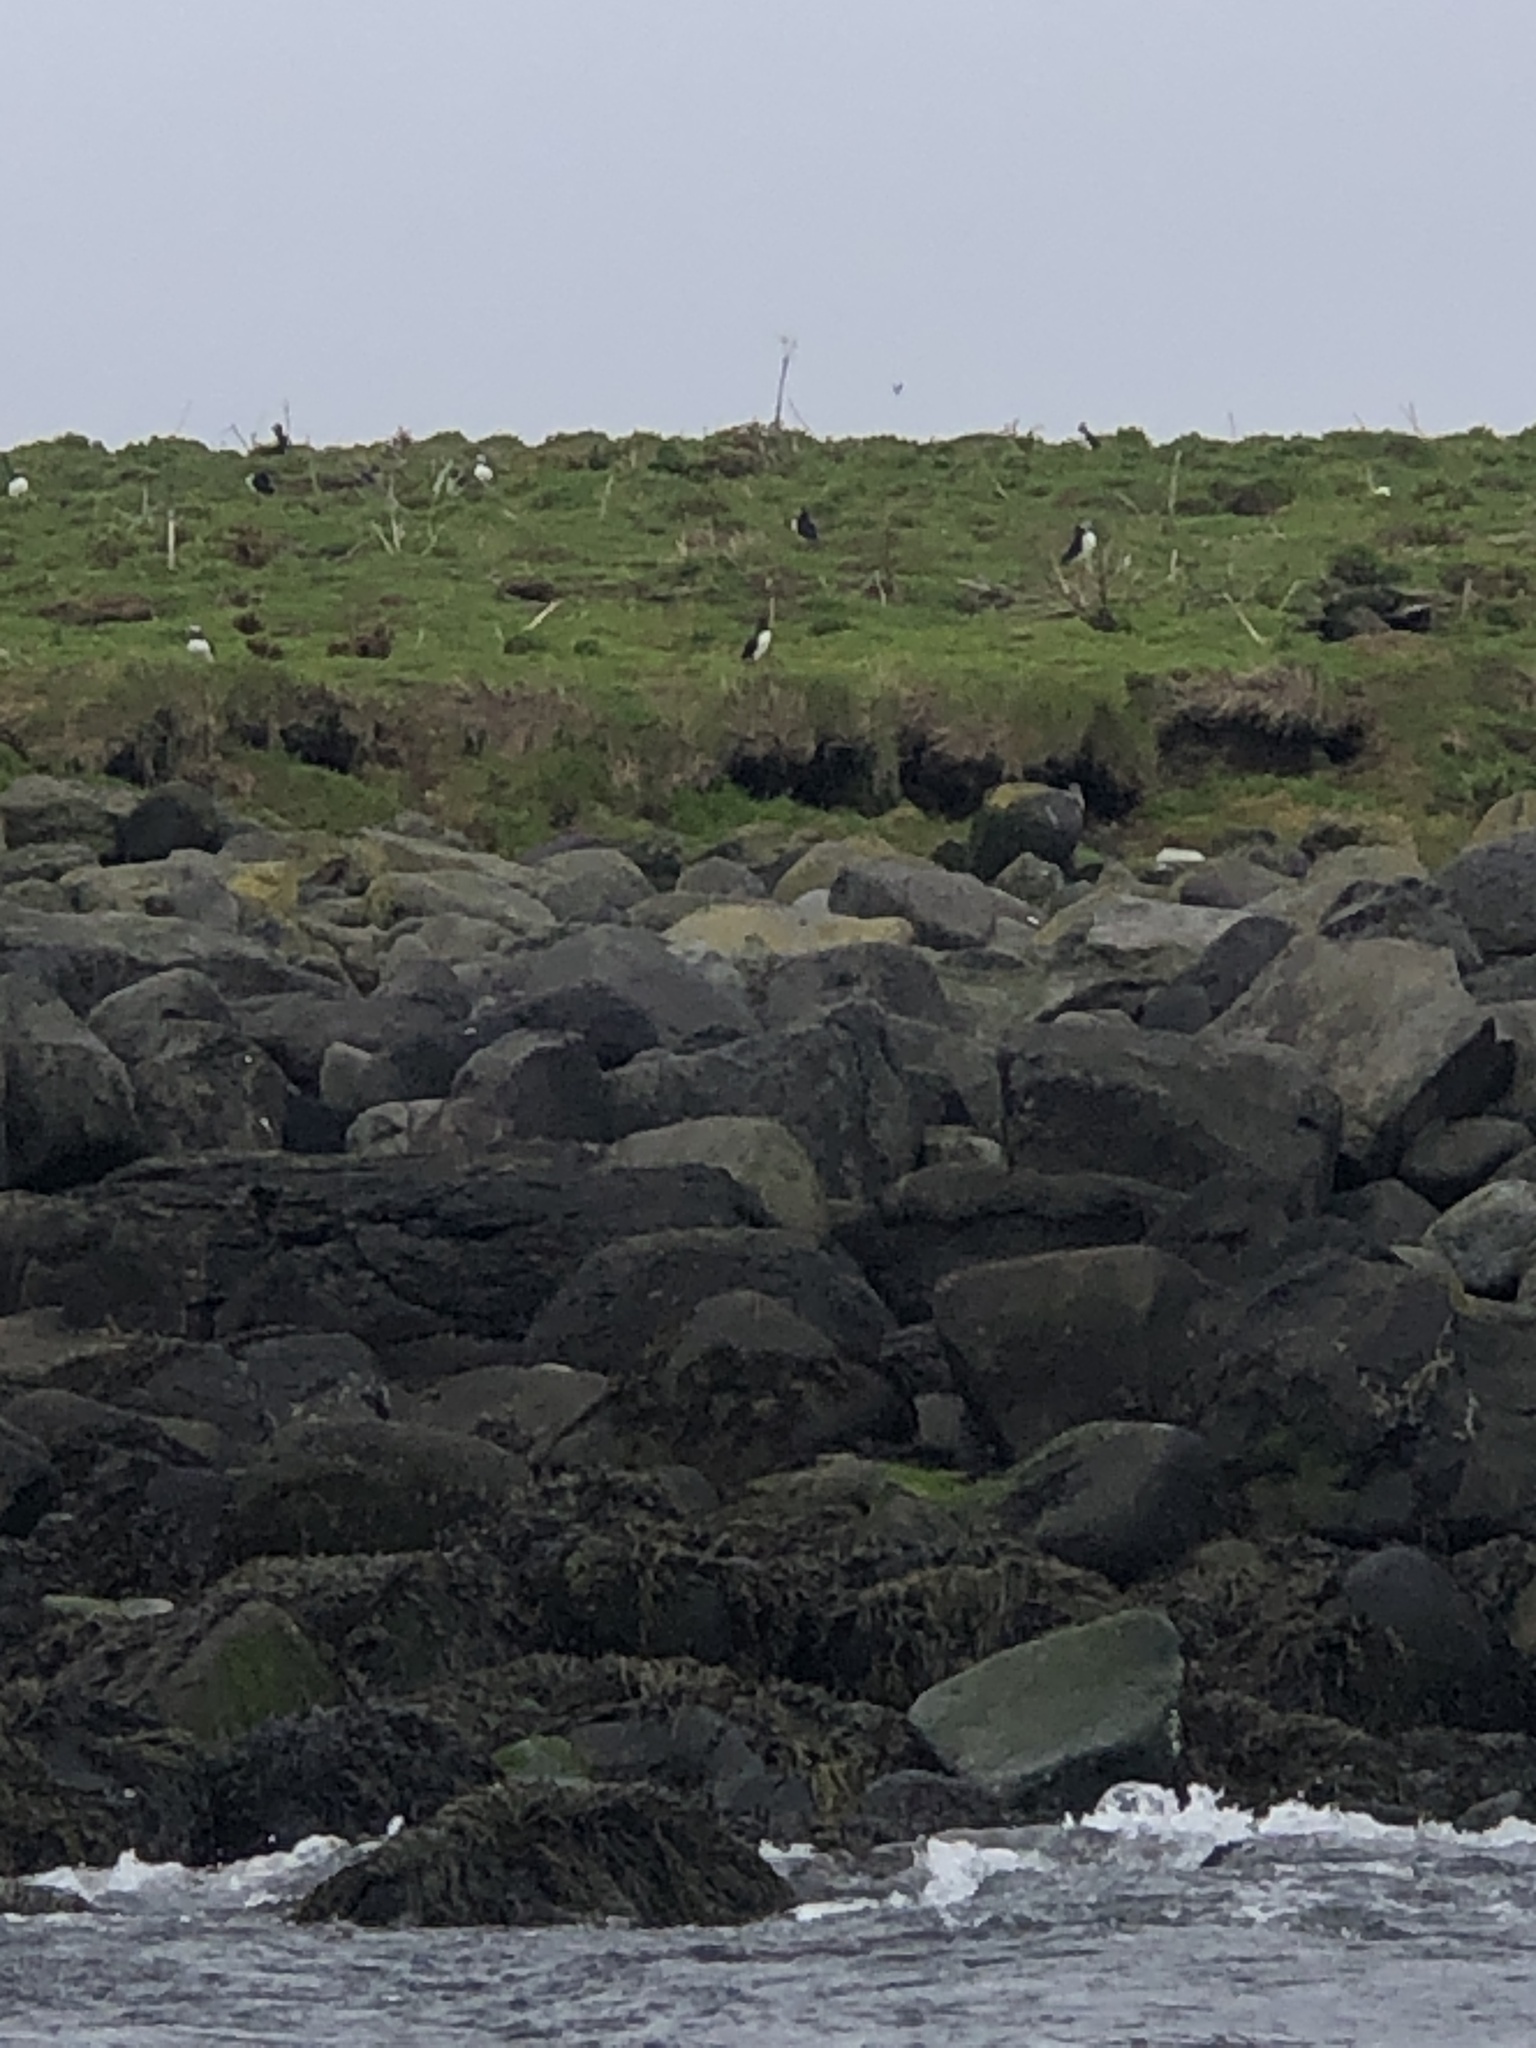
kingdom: Animalia
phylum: Chordata
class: Aves
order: Charadriiformes
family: Alcidae
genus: Fratercula
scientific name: Fratercula arctica
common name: Atlantic puffin
